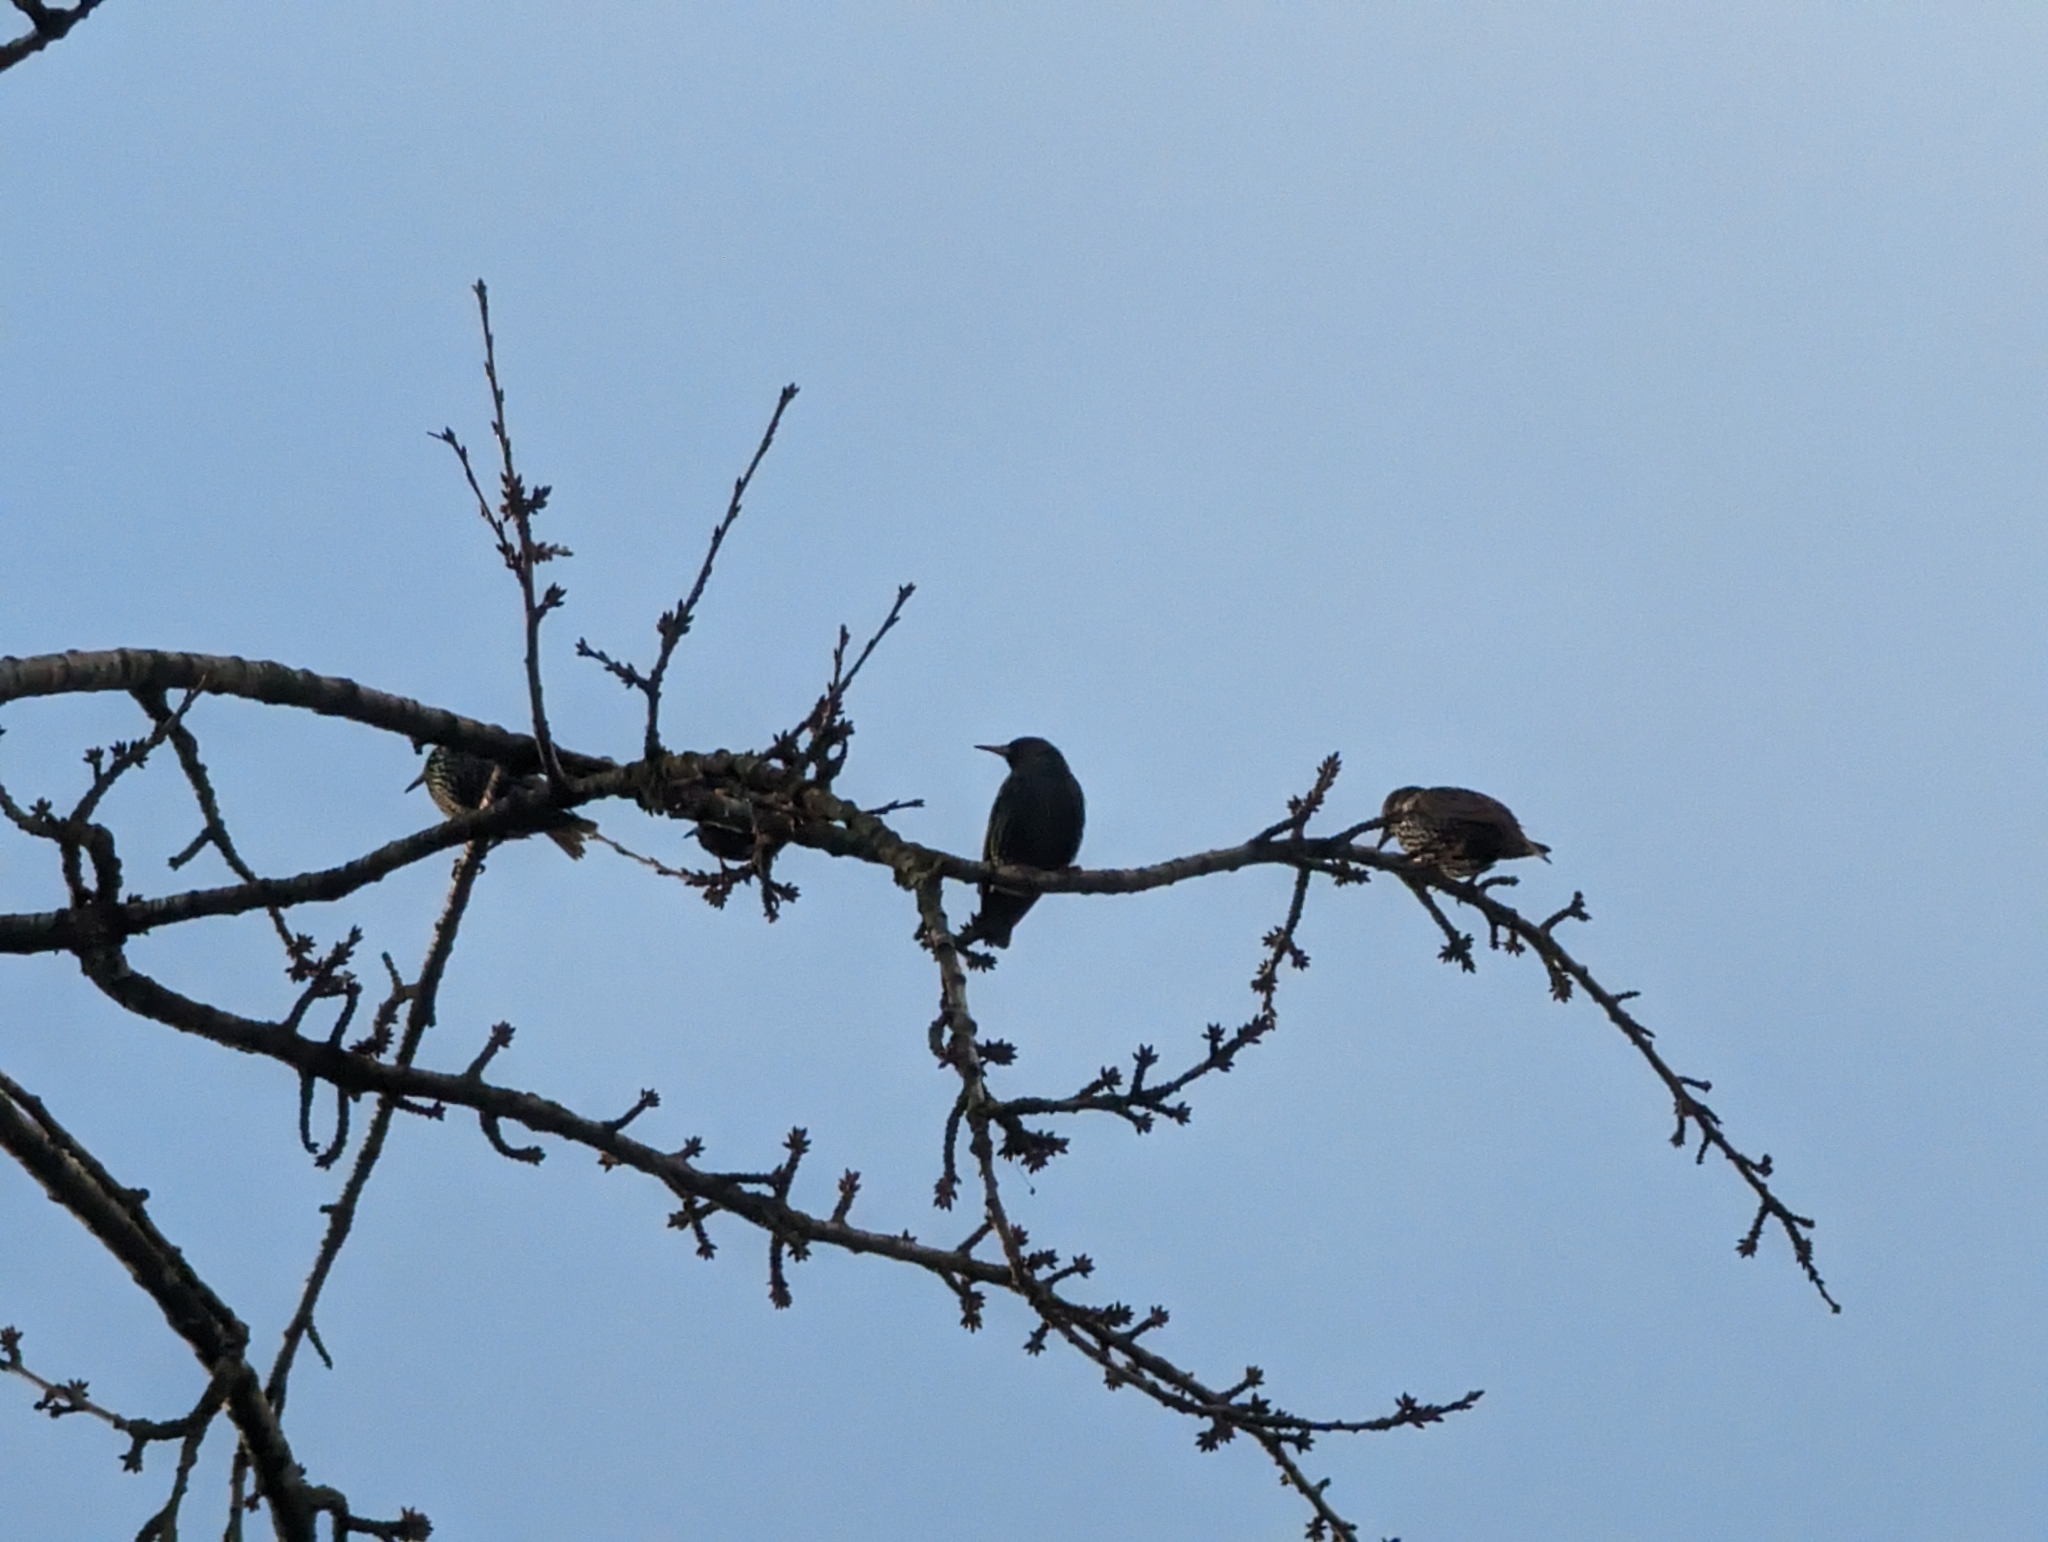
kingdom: Animalia
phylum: Chordata
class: Aves
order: Passeriformes
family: Sturnidae
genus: Sturnus
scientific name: Sturnus vulgaris
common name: Common starling
